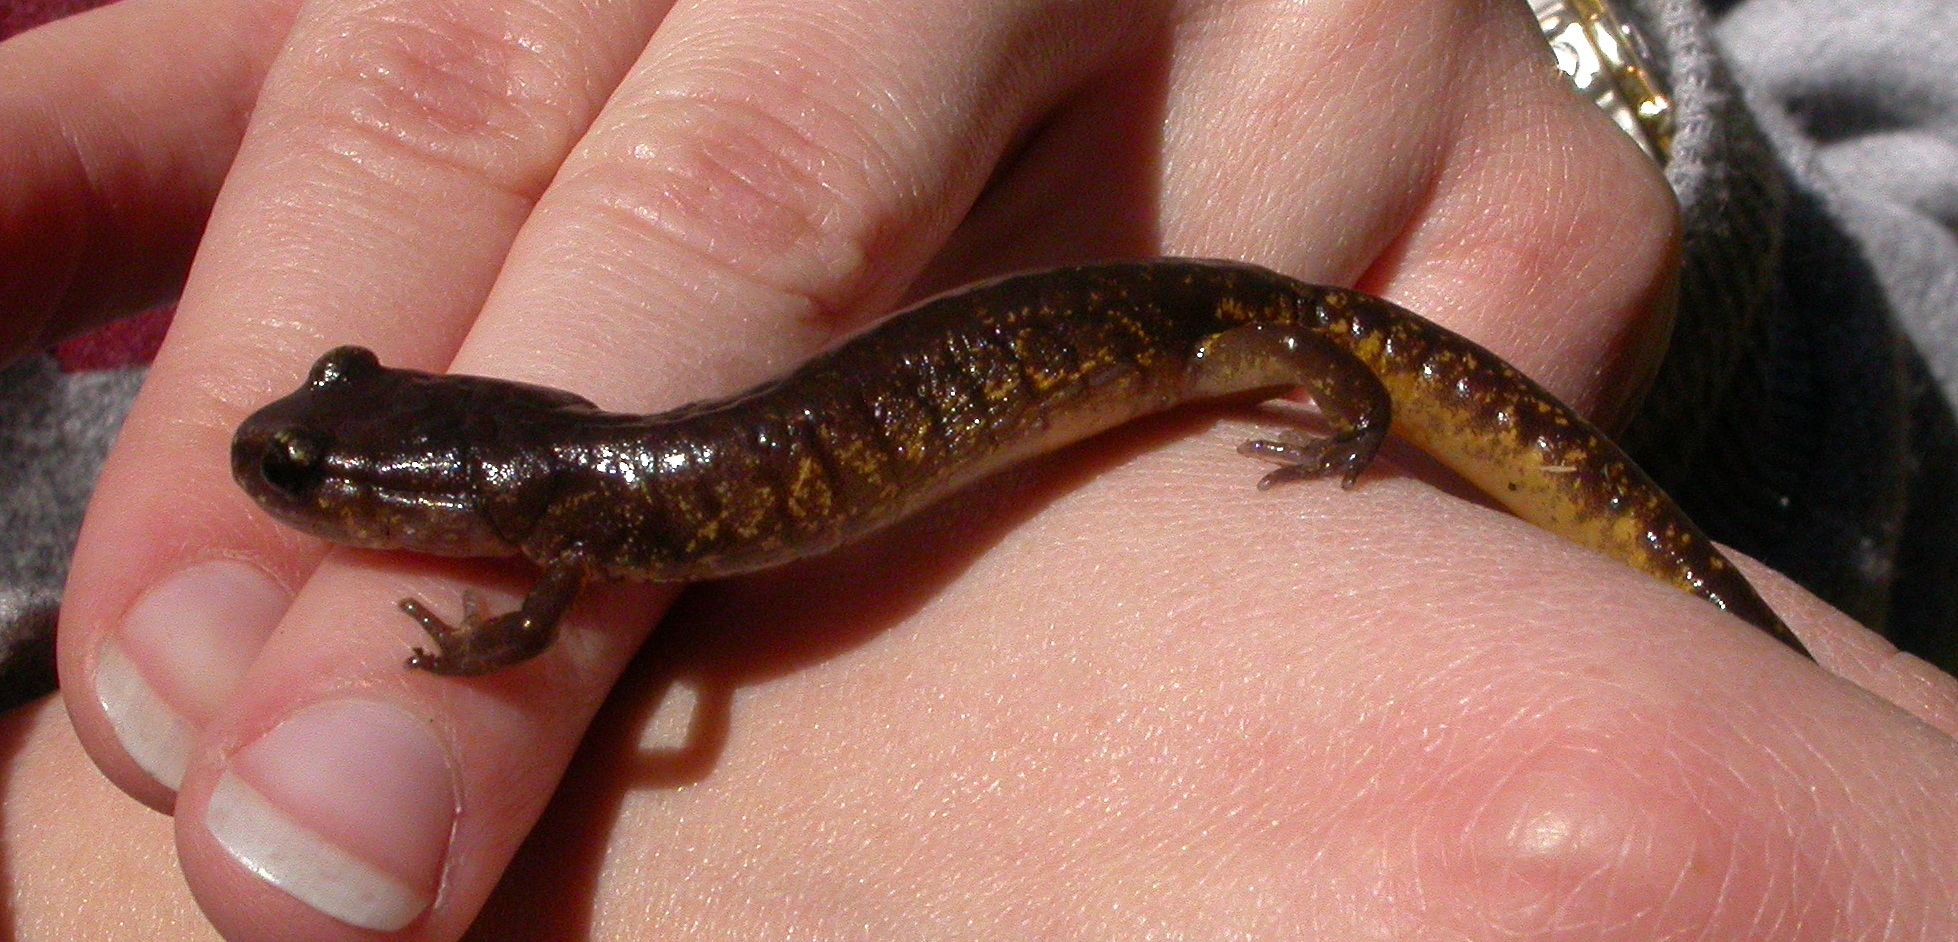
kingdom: Animalia
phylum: Chordata
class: Amphibia
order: Caudata
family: Plethodontidae
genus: Ensatina
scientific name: Ensatina eschscholtzii
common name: Ensatina
